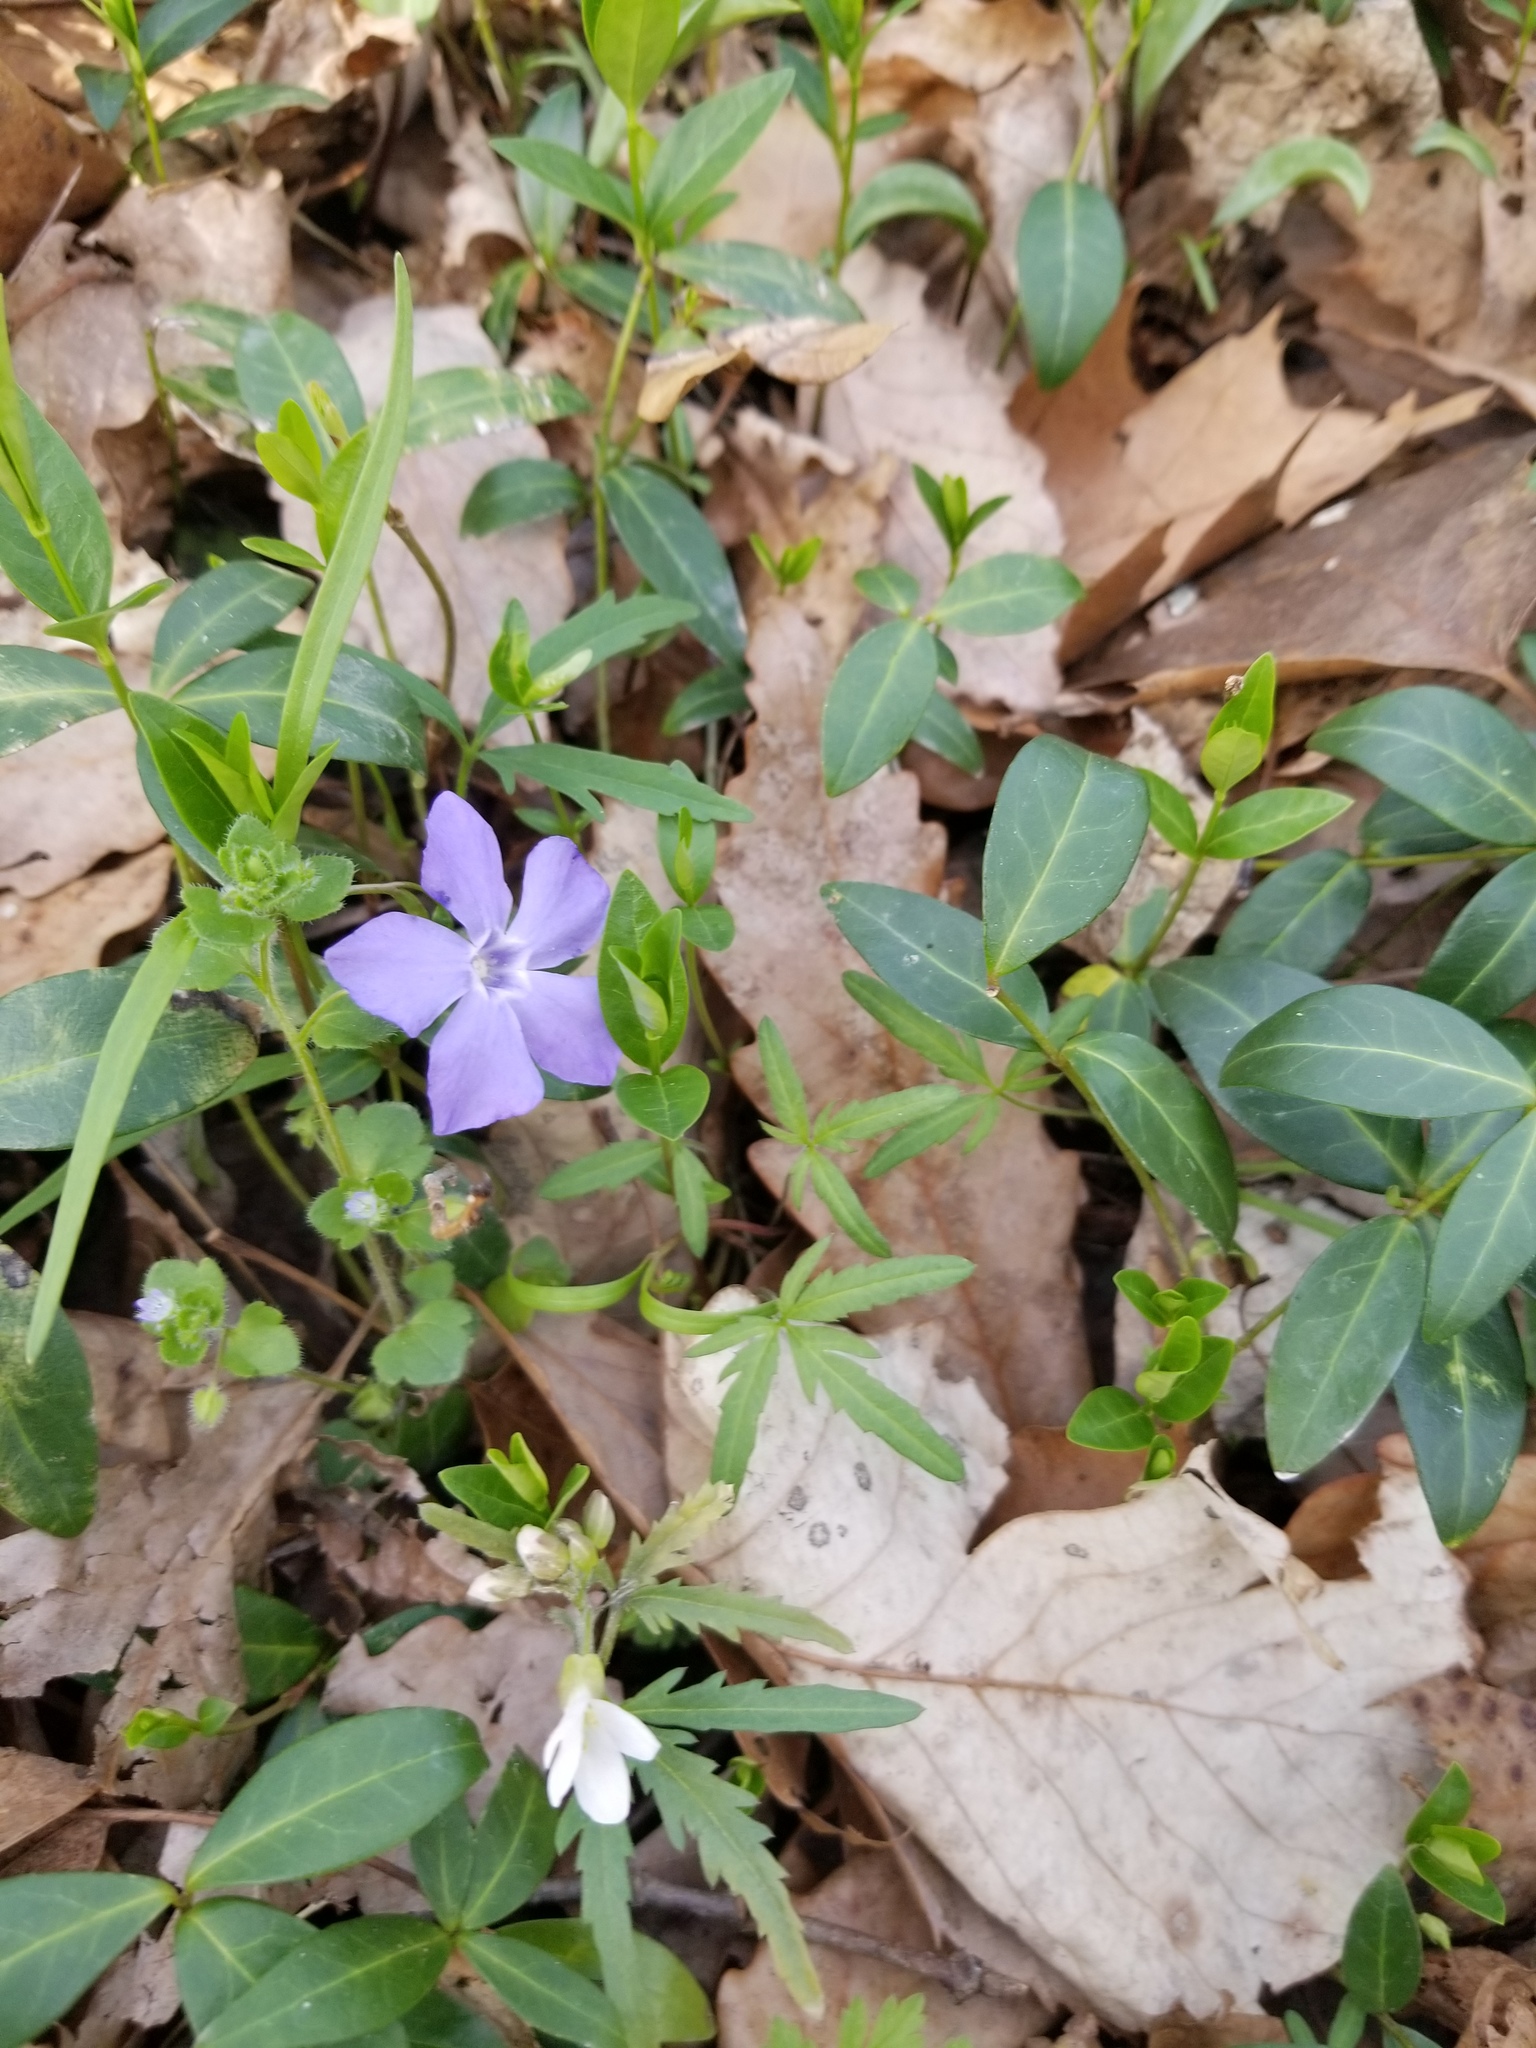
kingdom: Plantae
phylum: Tracheophyta
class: Magnoliopsida
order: Gentianales
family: Apocynaceae
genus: Vinca
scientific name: Vinca minor
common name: Lesser periwinkle
